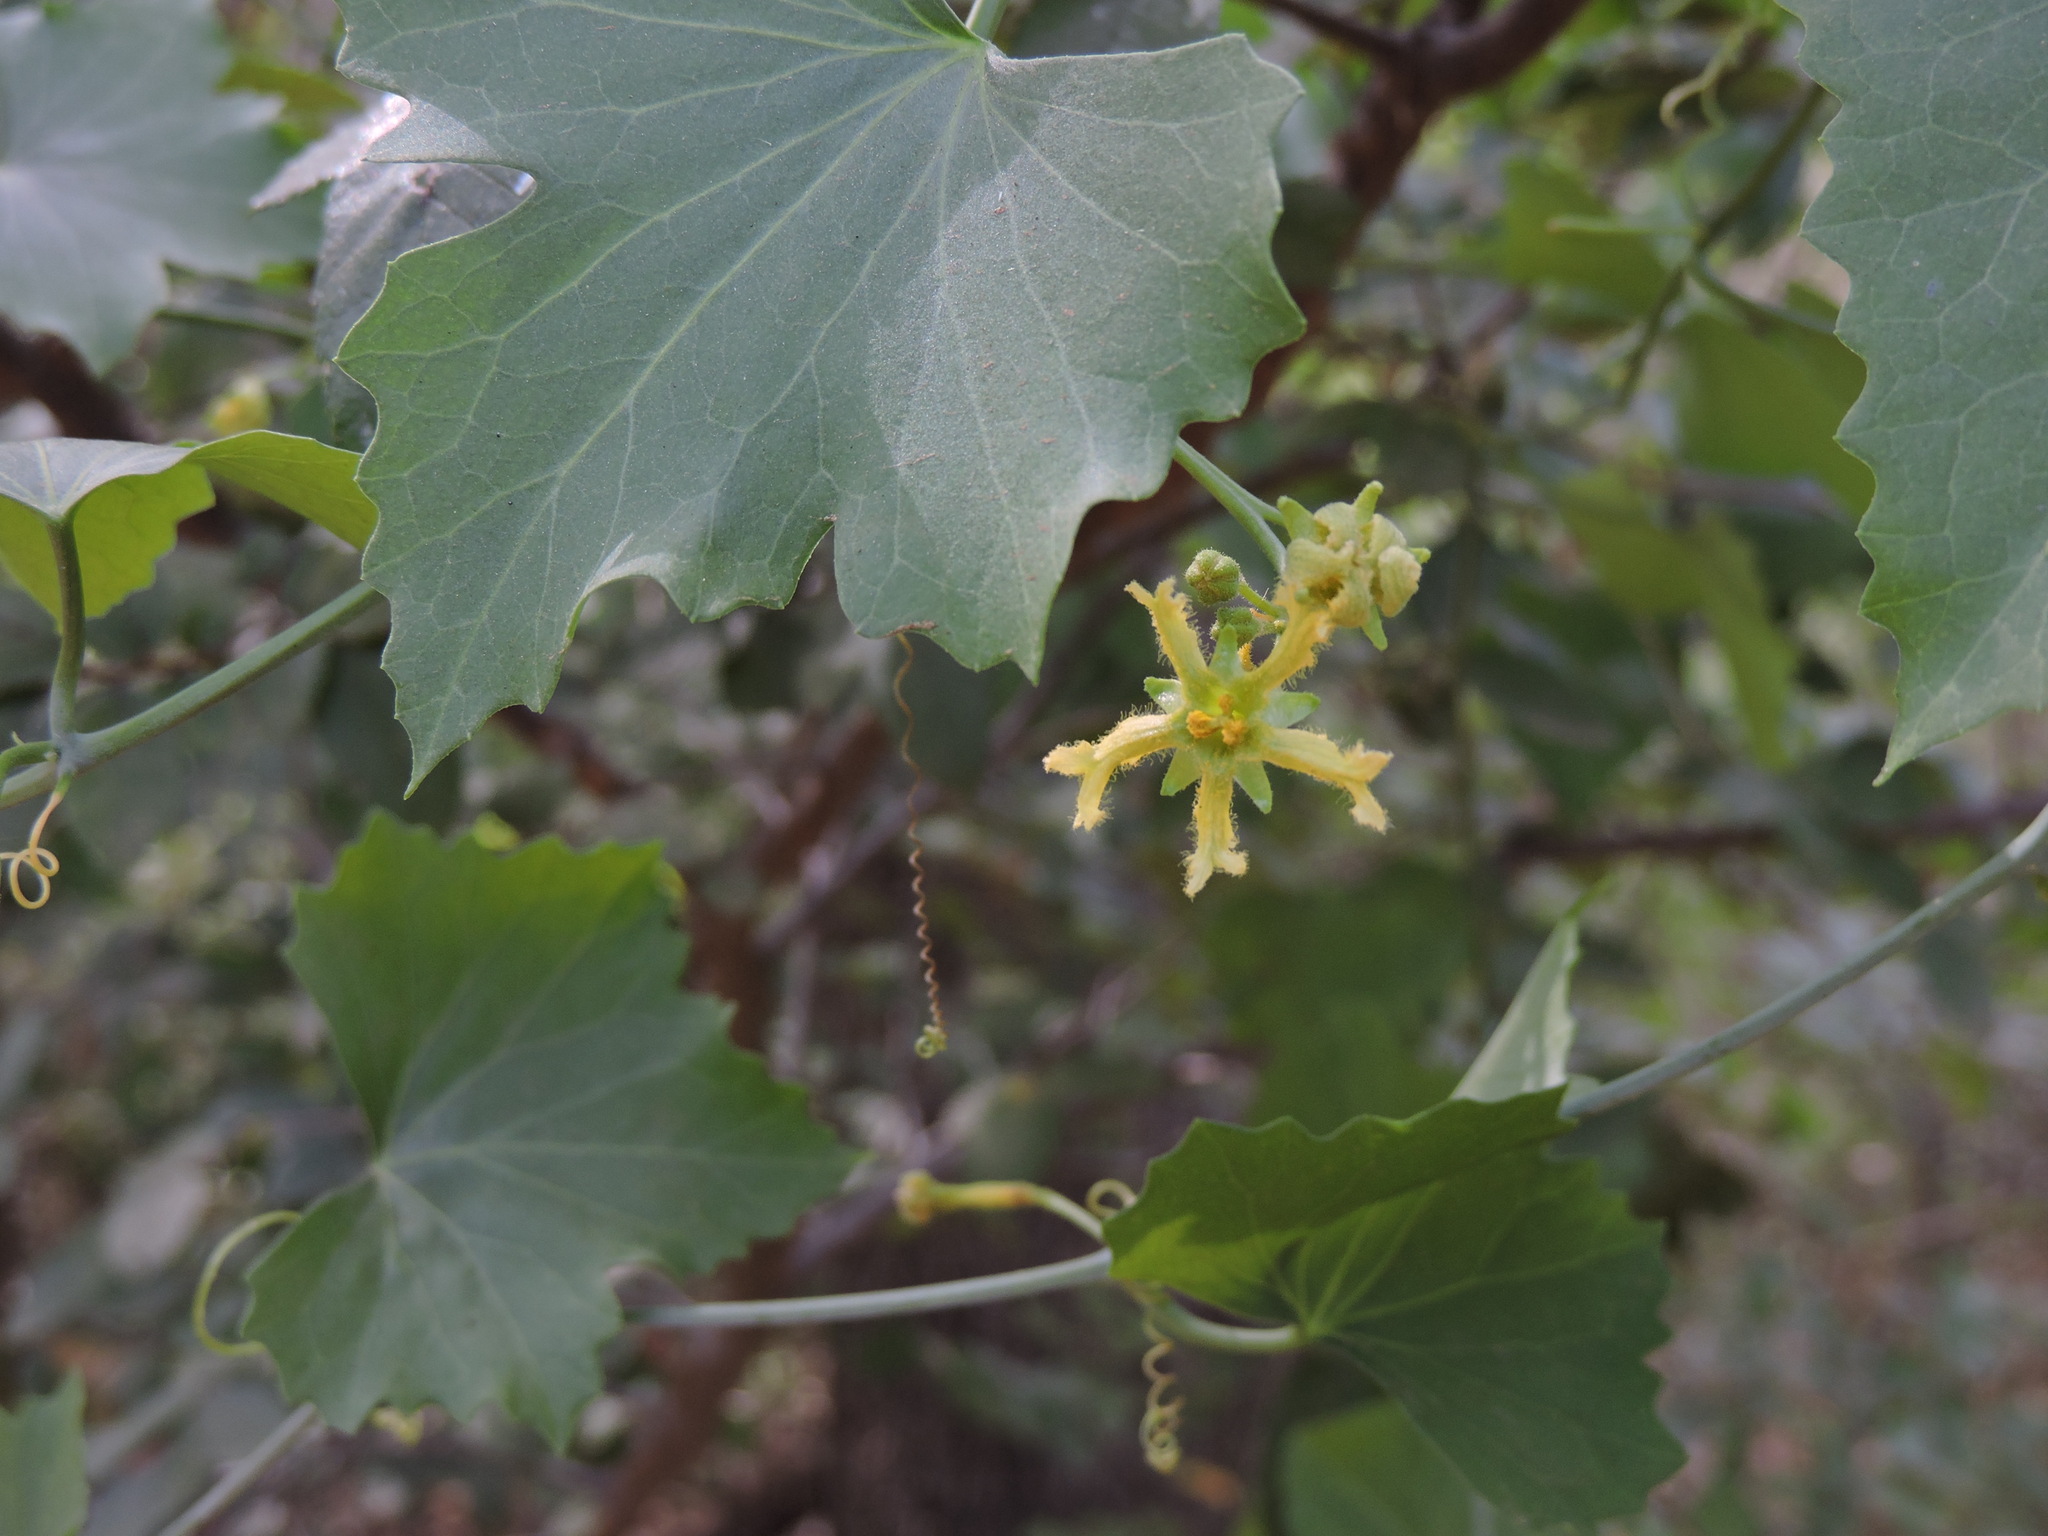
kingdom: Plantae
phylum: Tracheophyta
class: Magnoliopsida
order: Cucurbitales
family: Cucurbitaceae
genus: Ibervillea
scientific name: Ibervillea lindheimeri
